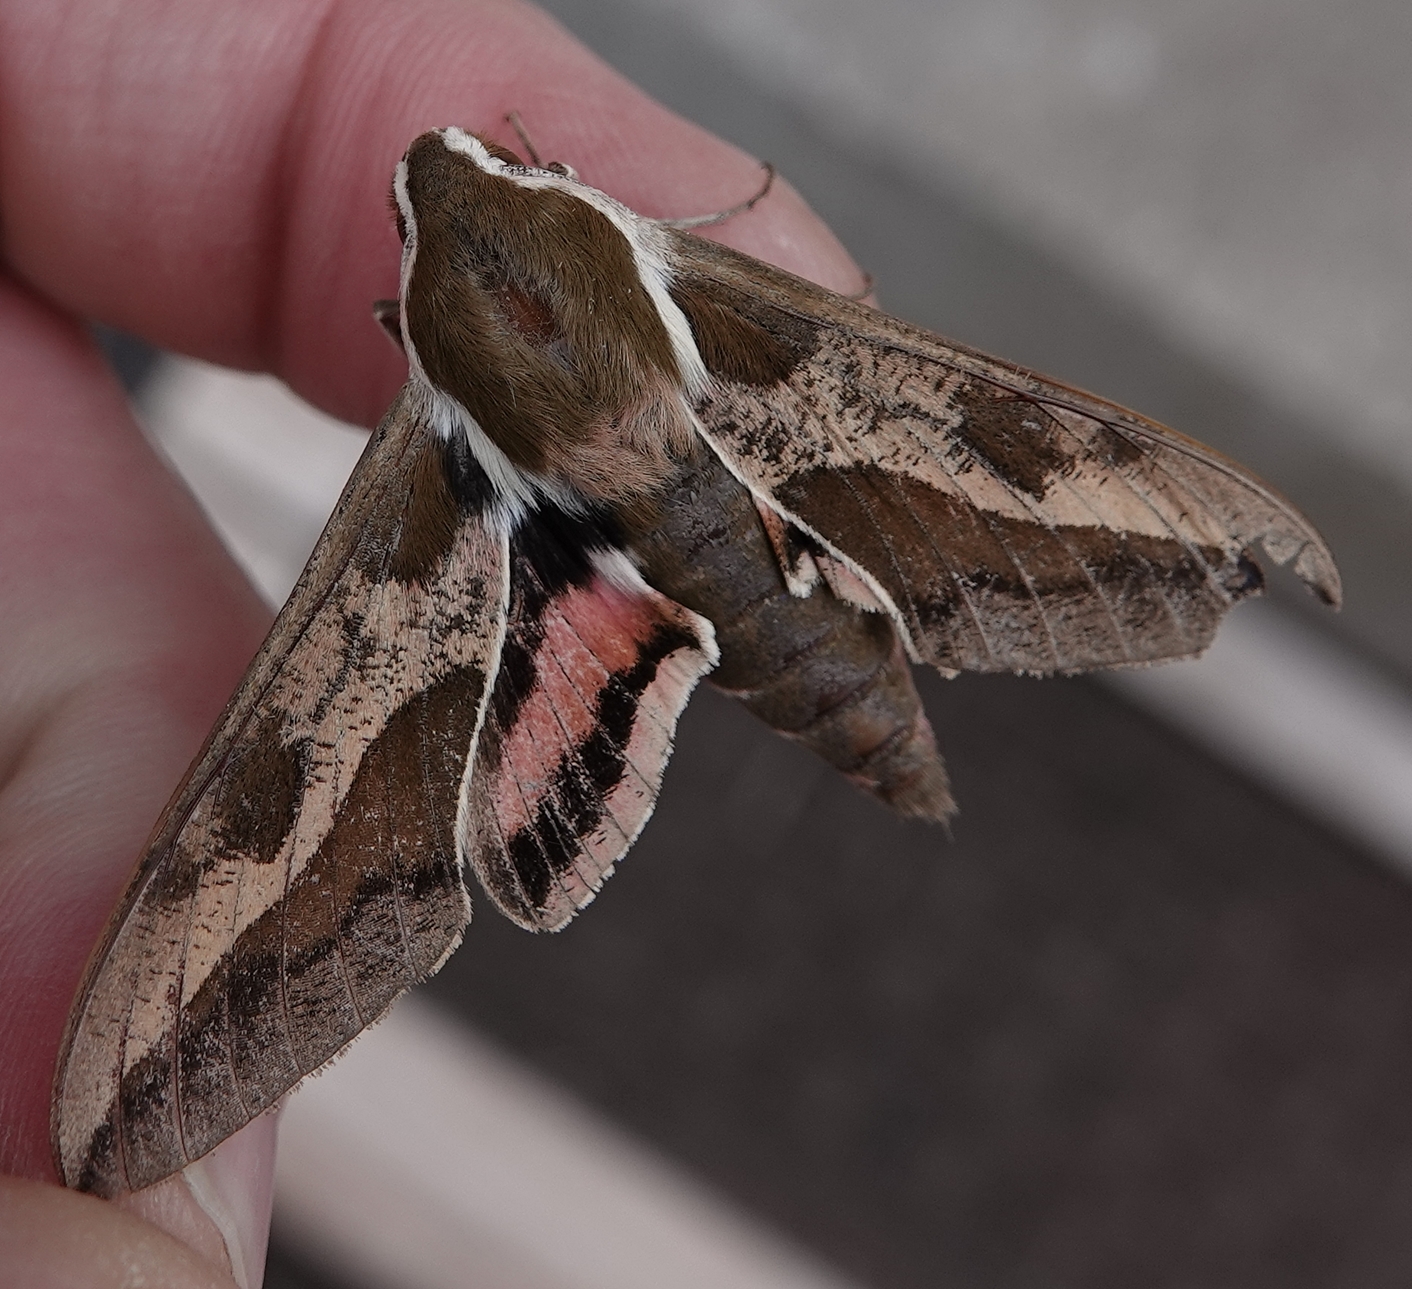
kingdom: Animalia
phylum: Arthropoda
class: Insecta
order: Lepidoptera
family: Sphingidae
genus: Hyles
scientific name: Hyles euphorbiae
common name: Spurge hawk-moth
